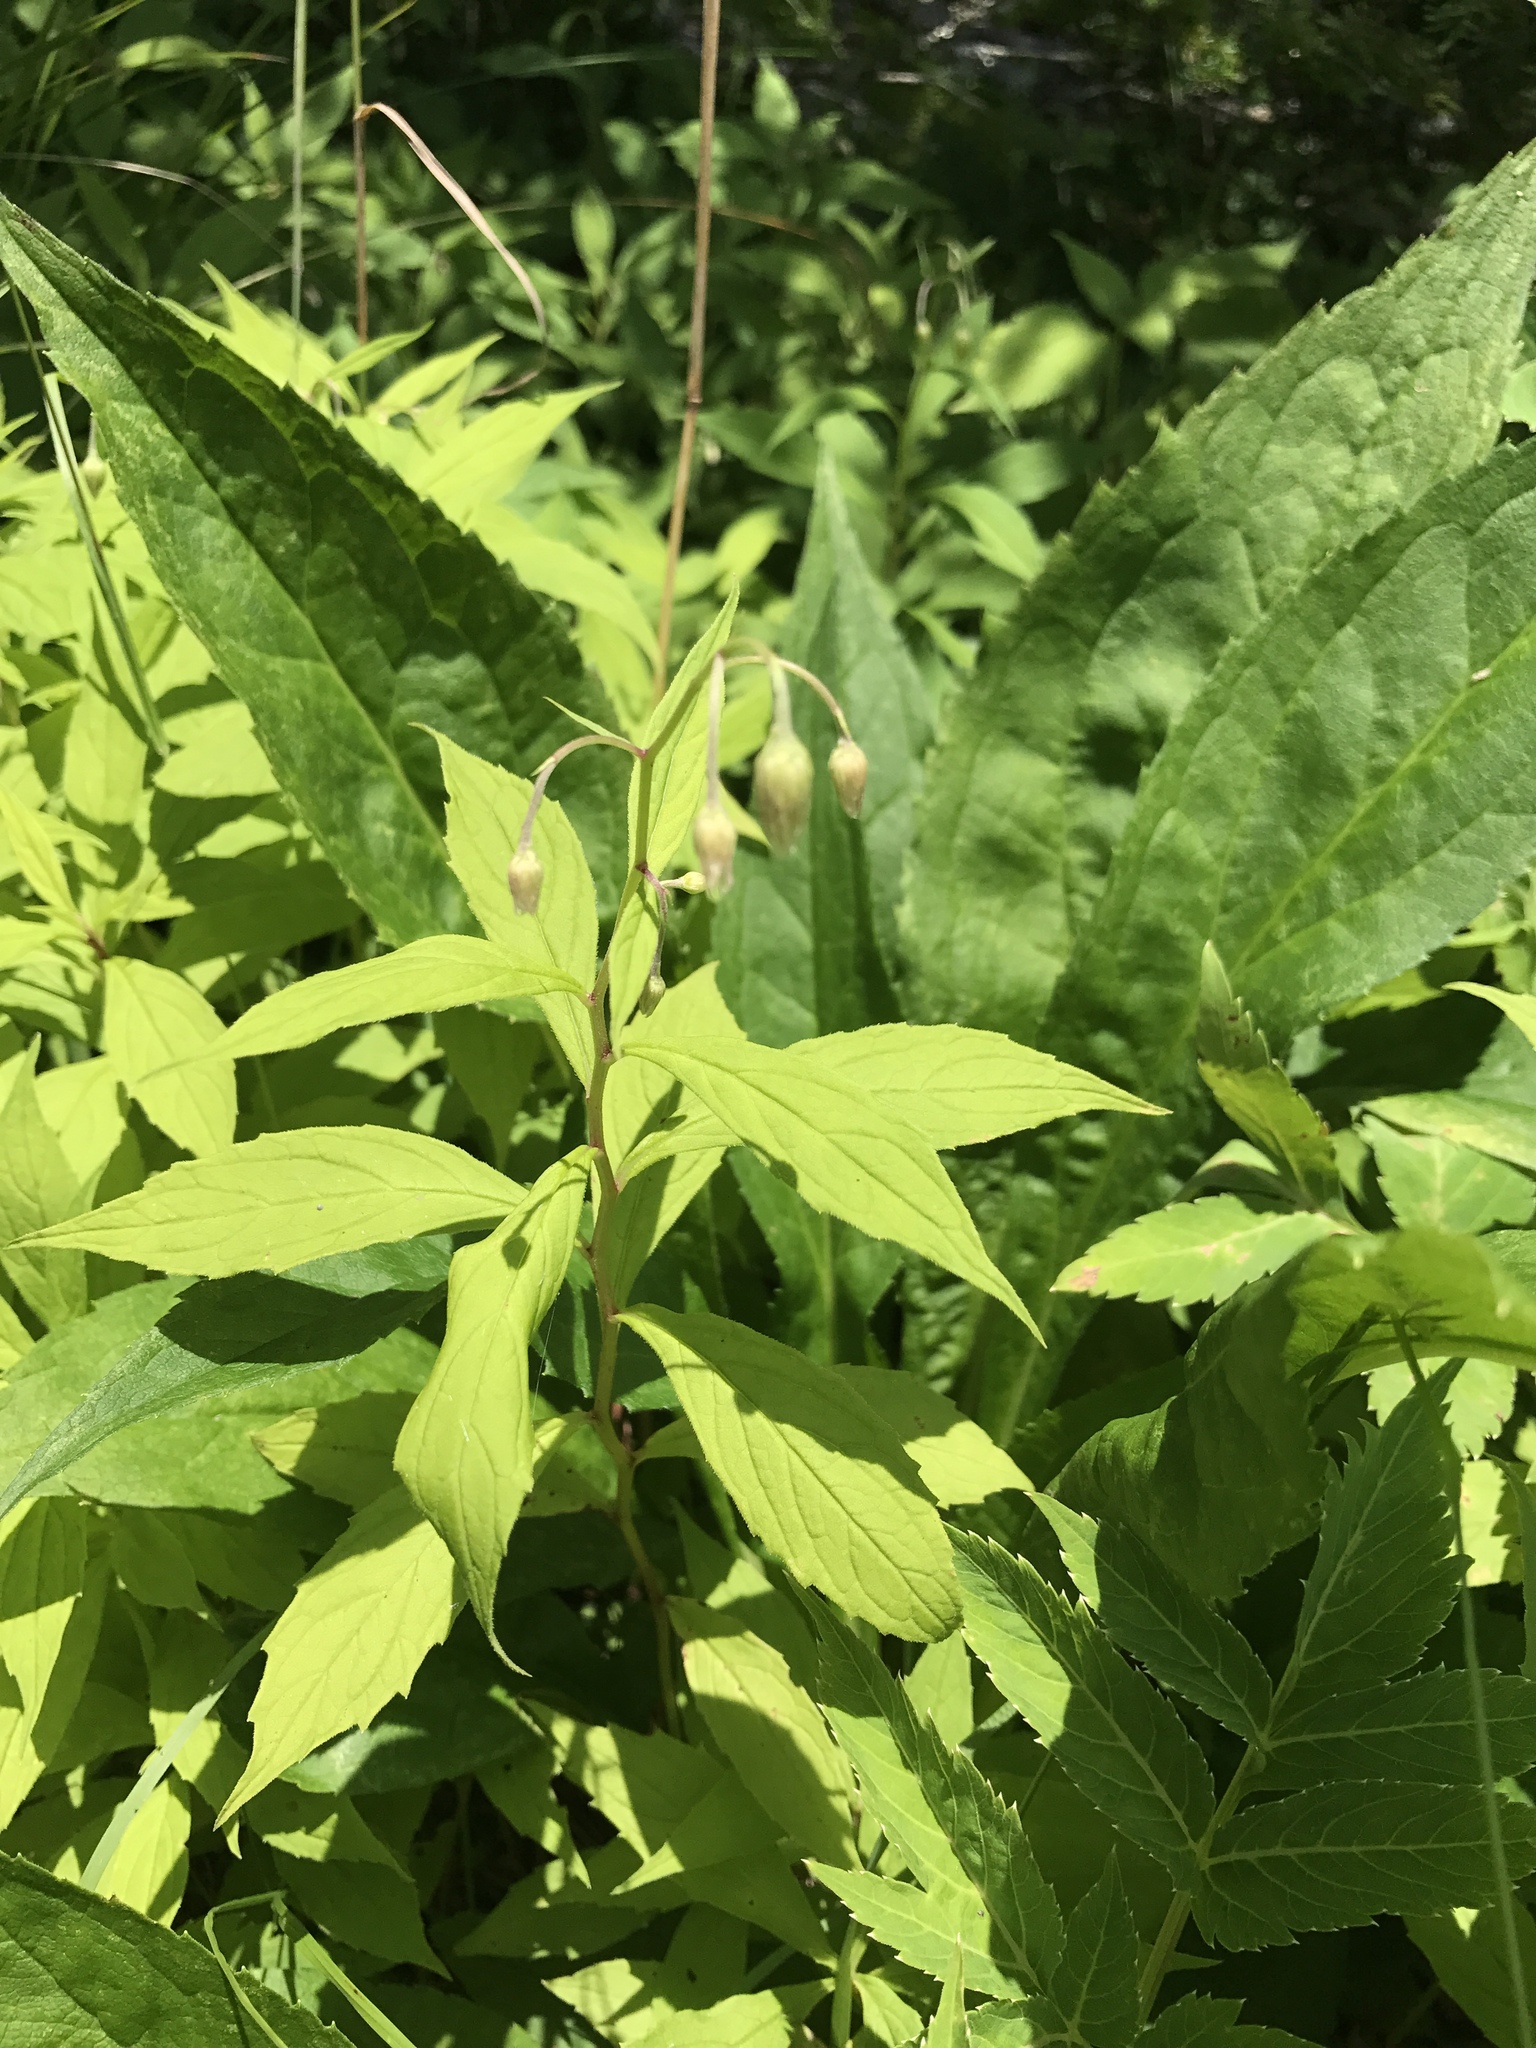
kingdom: Plantae
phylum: Tracheophyta
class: Magnoliopsida
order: Asterales
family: Asteraceae
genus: Oclemena
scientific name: Oclemena acuminata
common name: Mountain aster
